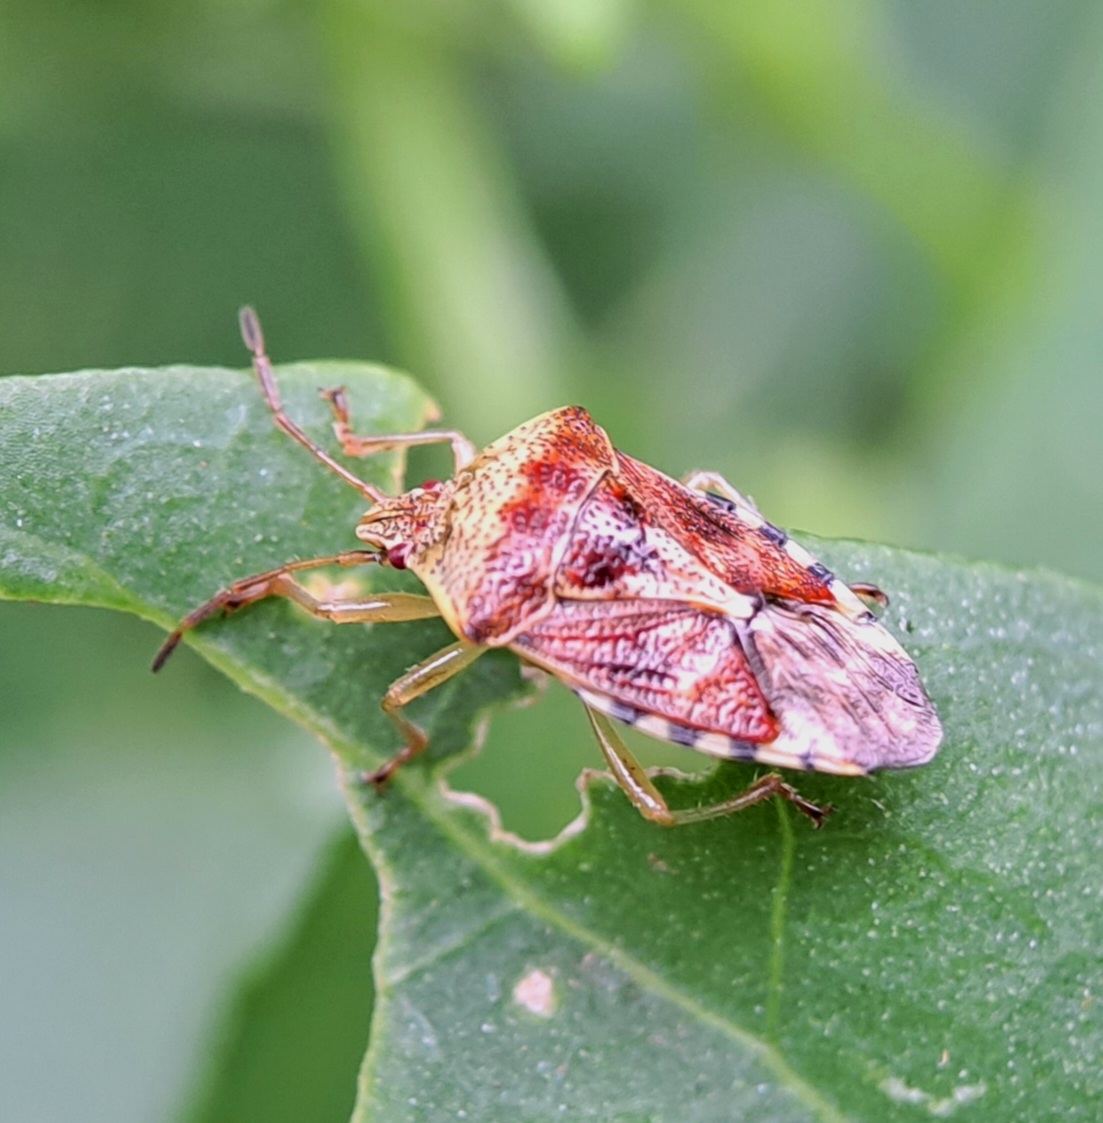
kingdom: Animalia
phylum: Arthropoda
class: Insecta
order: Hemiptera
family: Acanthosomatidae
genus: Elasmucha
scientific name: Elasmucha grisea
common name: Parent bug
